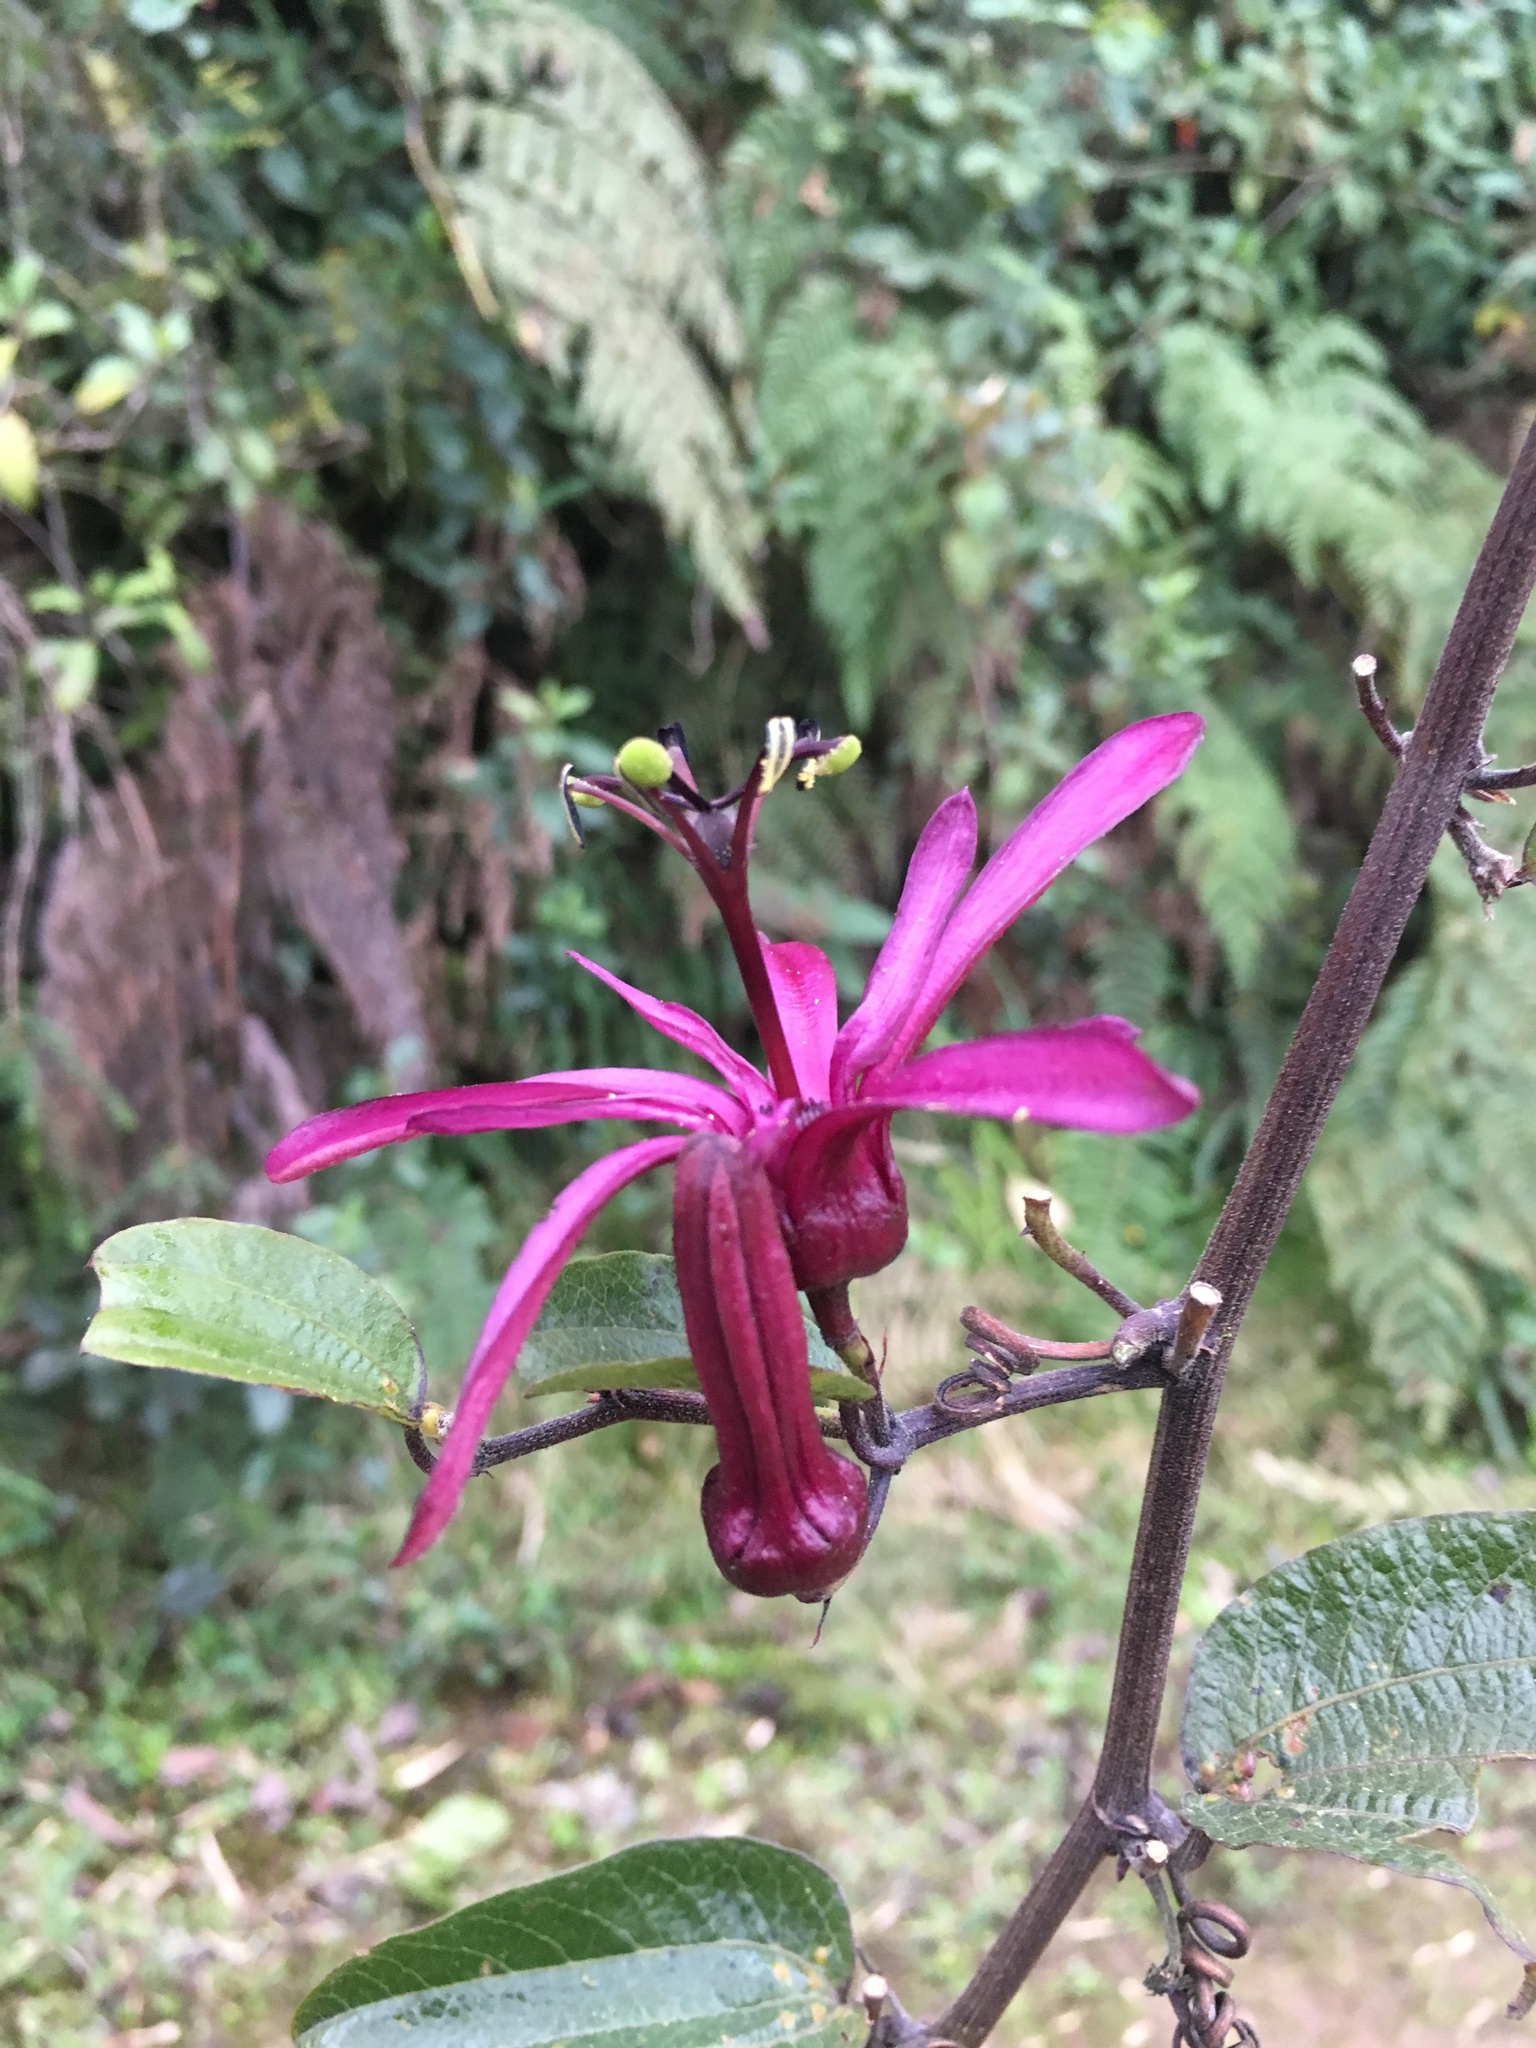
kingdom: Plantae
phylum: Tracheophyta
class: Magnoliopsida
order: Malpighiales
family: Passifloraceae
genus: Passiflora
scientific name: Passiflora azeroana
